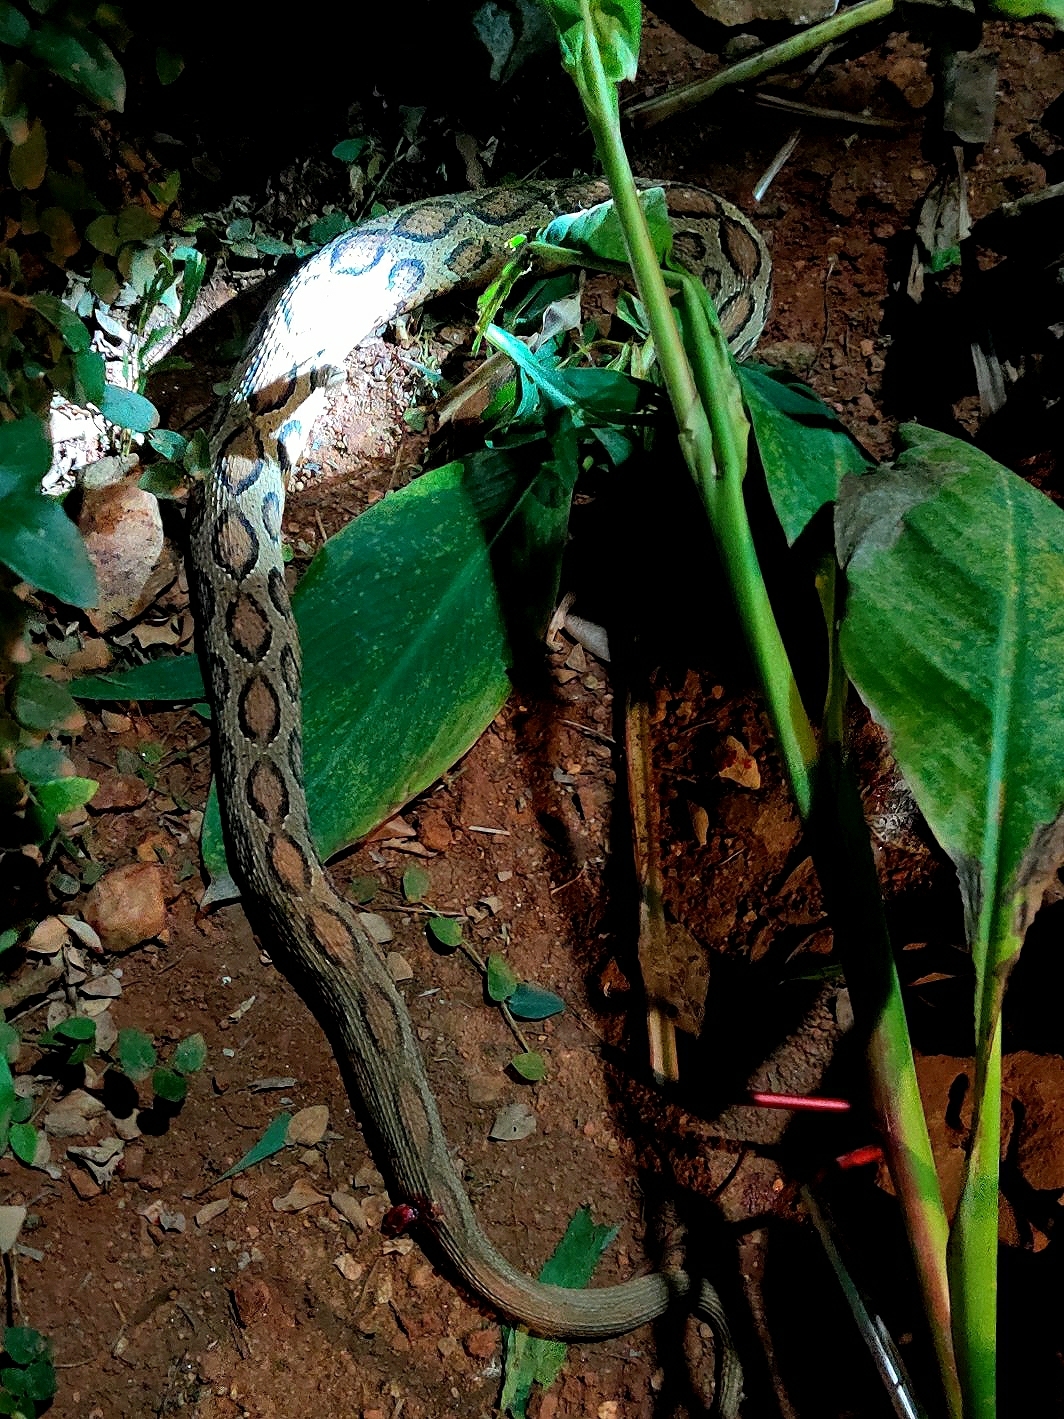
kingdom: Animalia
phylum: Chordata
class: Squamata
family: Viperidae
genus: Daboia
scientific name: Daboia russelii
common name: Western russel’s viper
